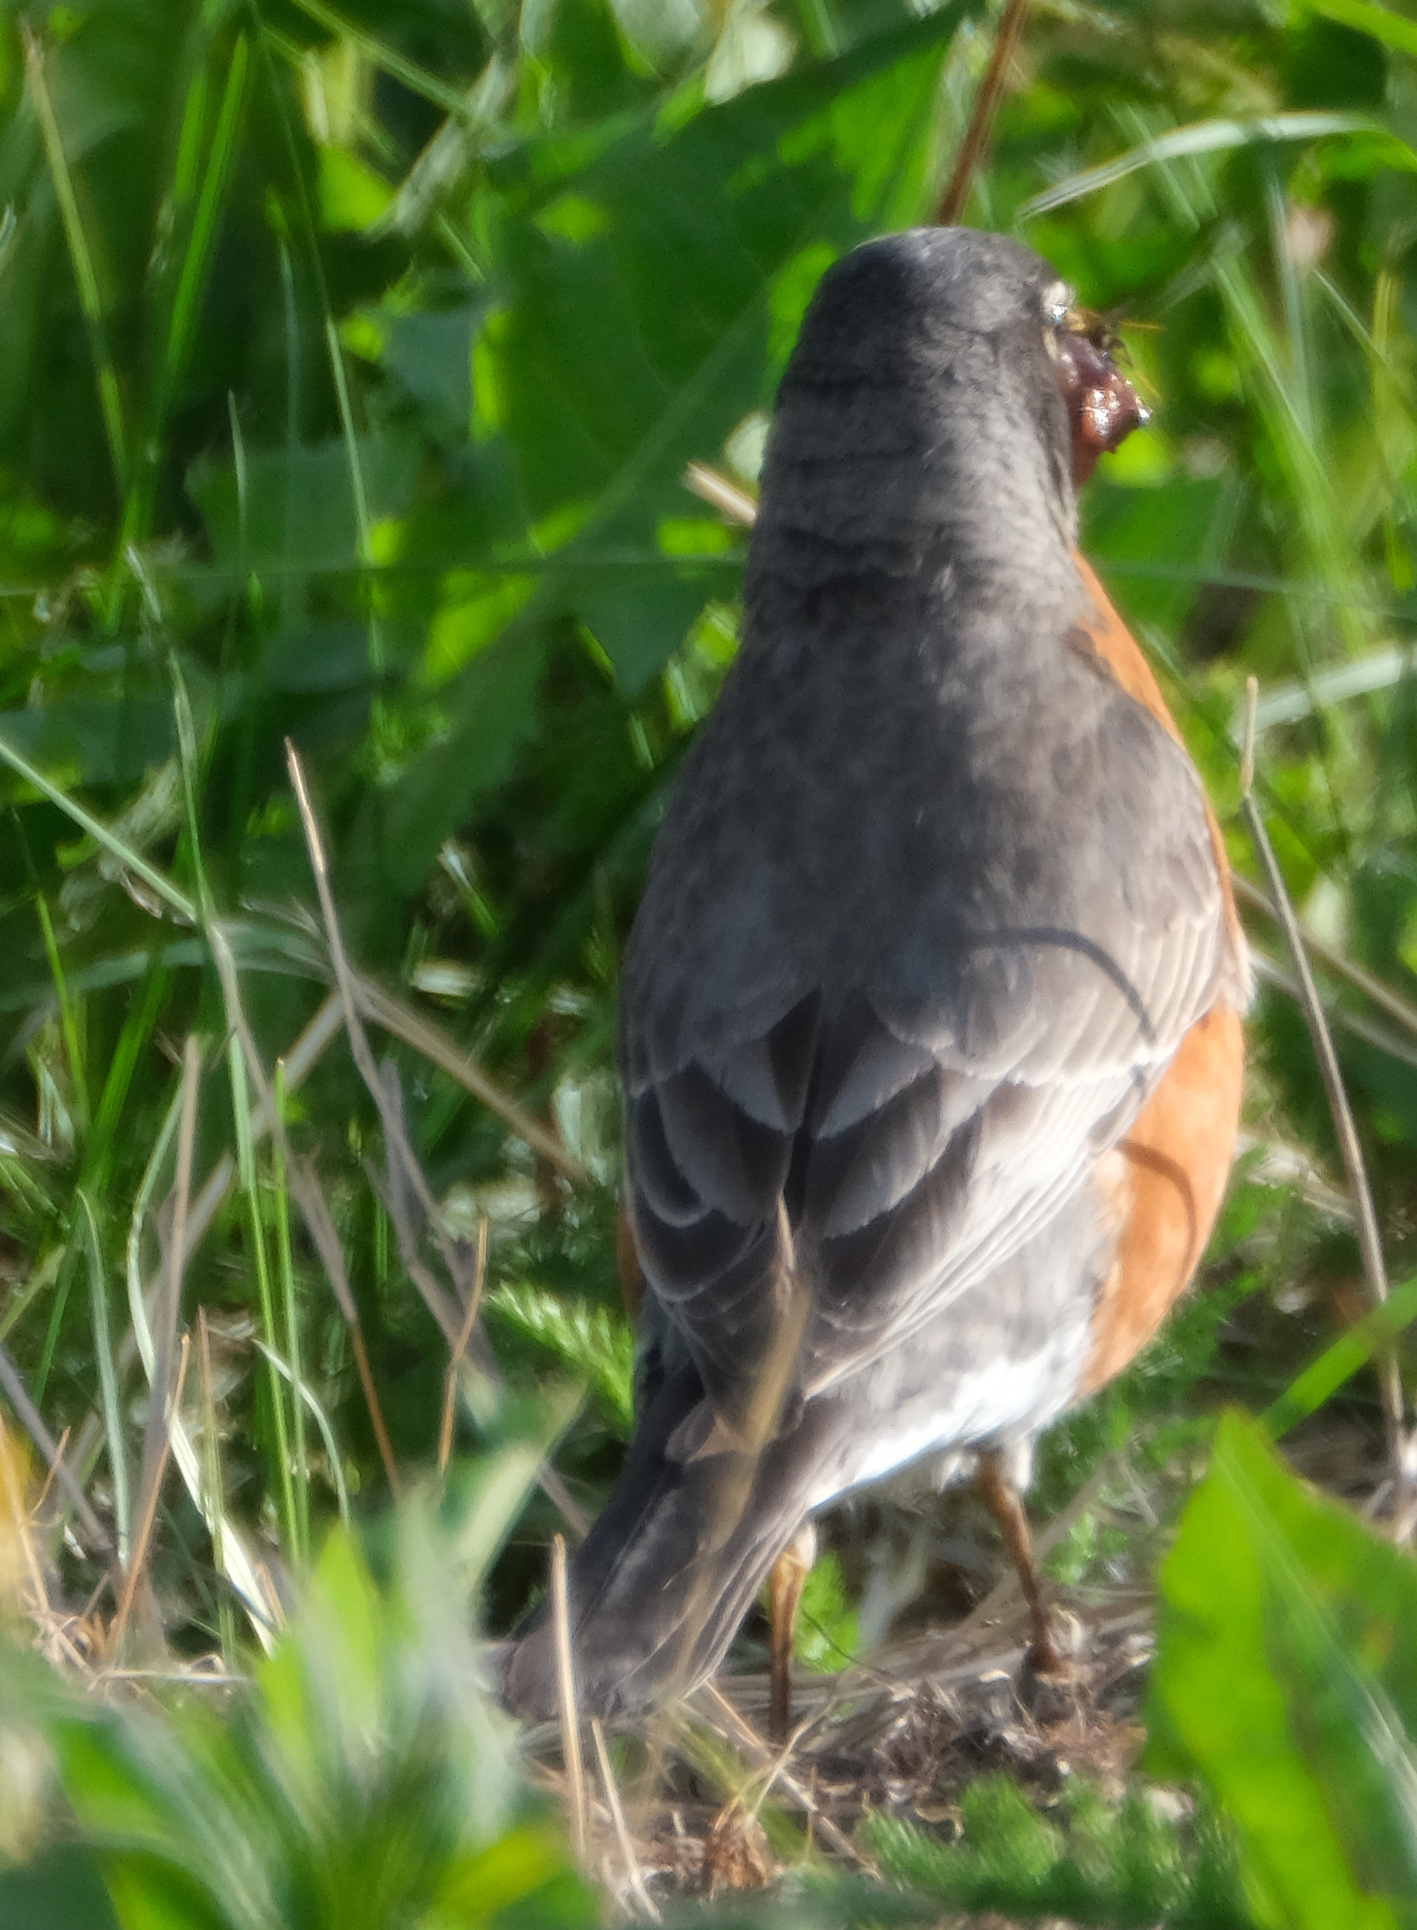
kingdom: Animalia
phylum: Chordata
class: Aves
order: Passeriformes
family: Turdidae
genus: Turdus
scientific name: Turdus migratorius
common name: American robin
